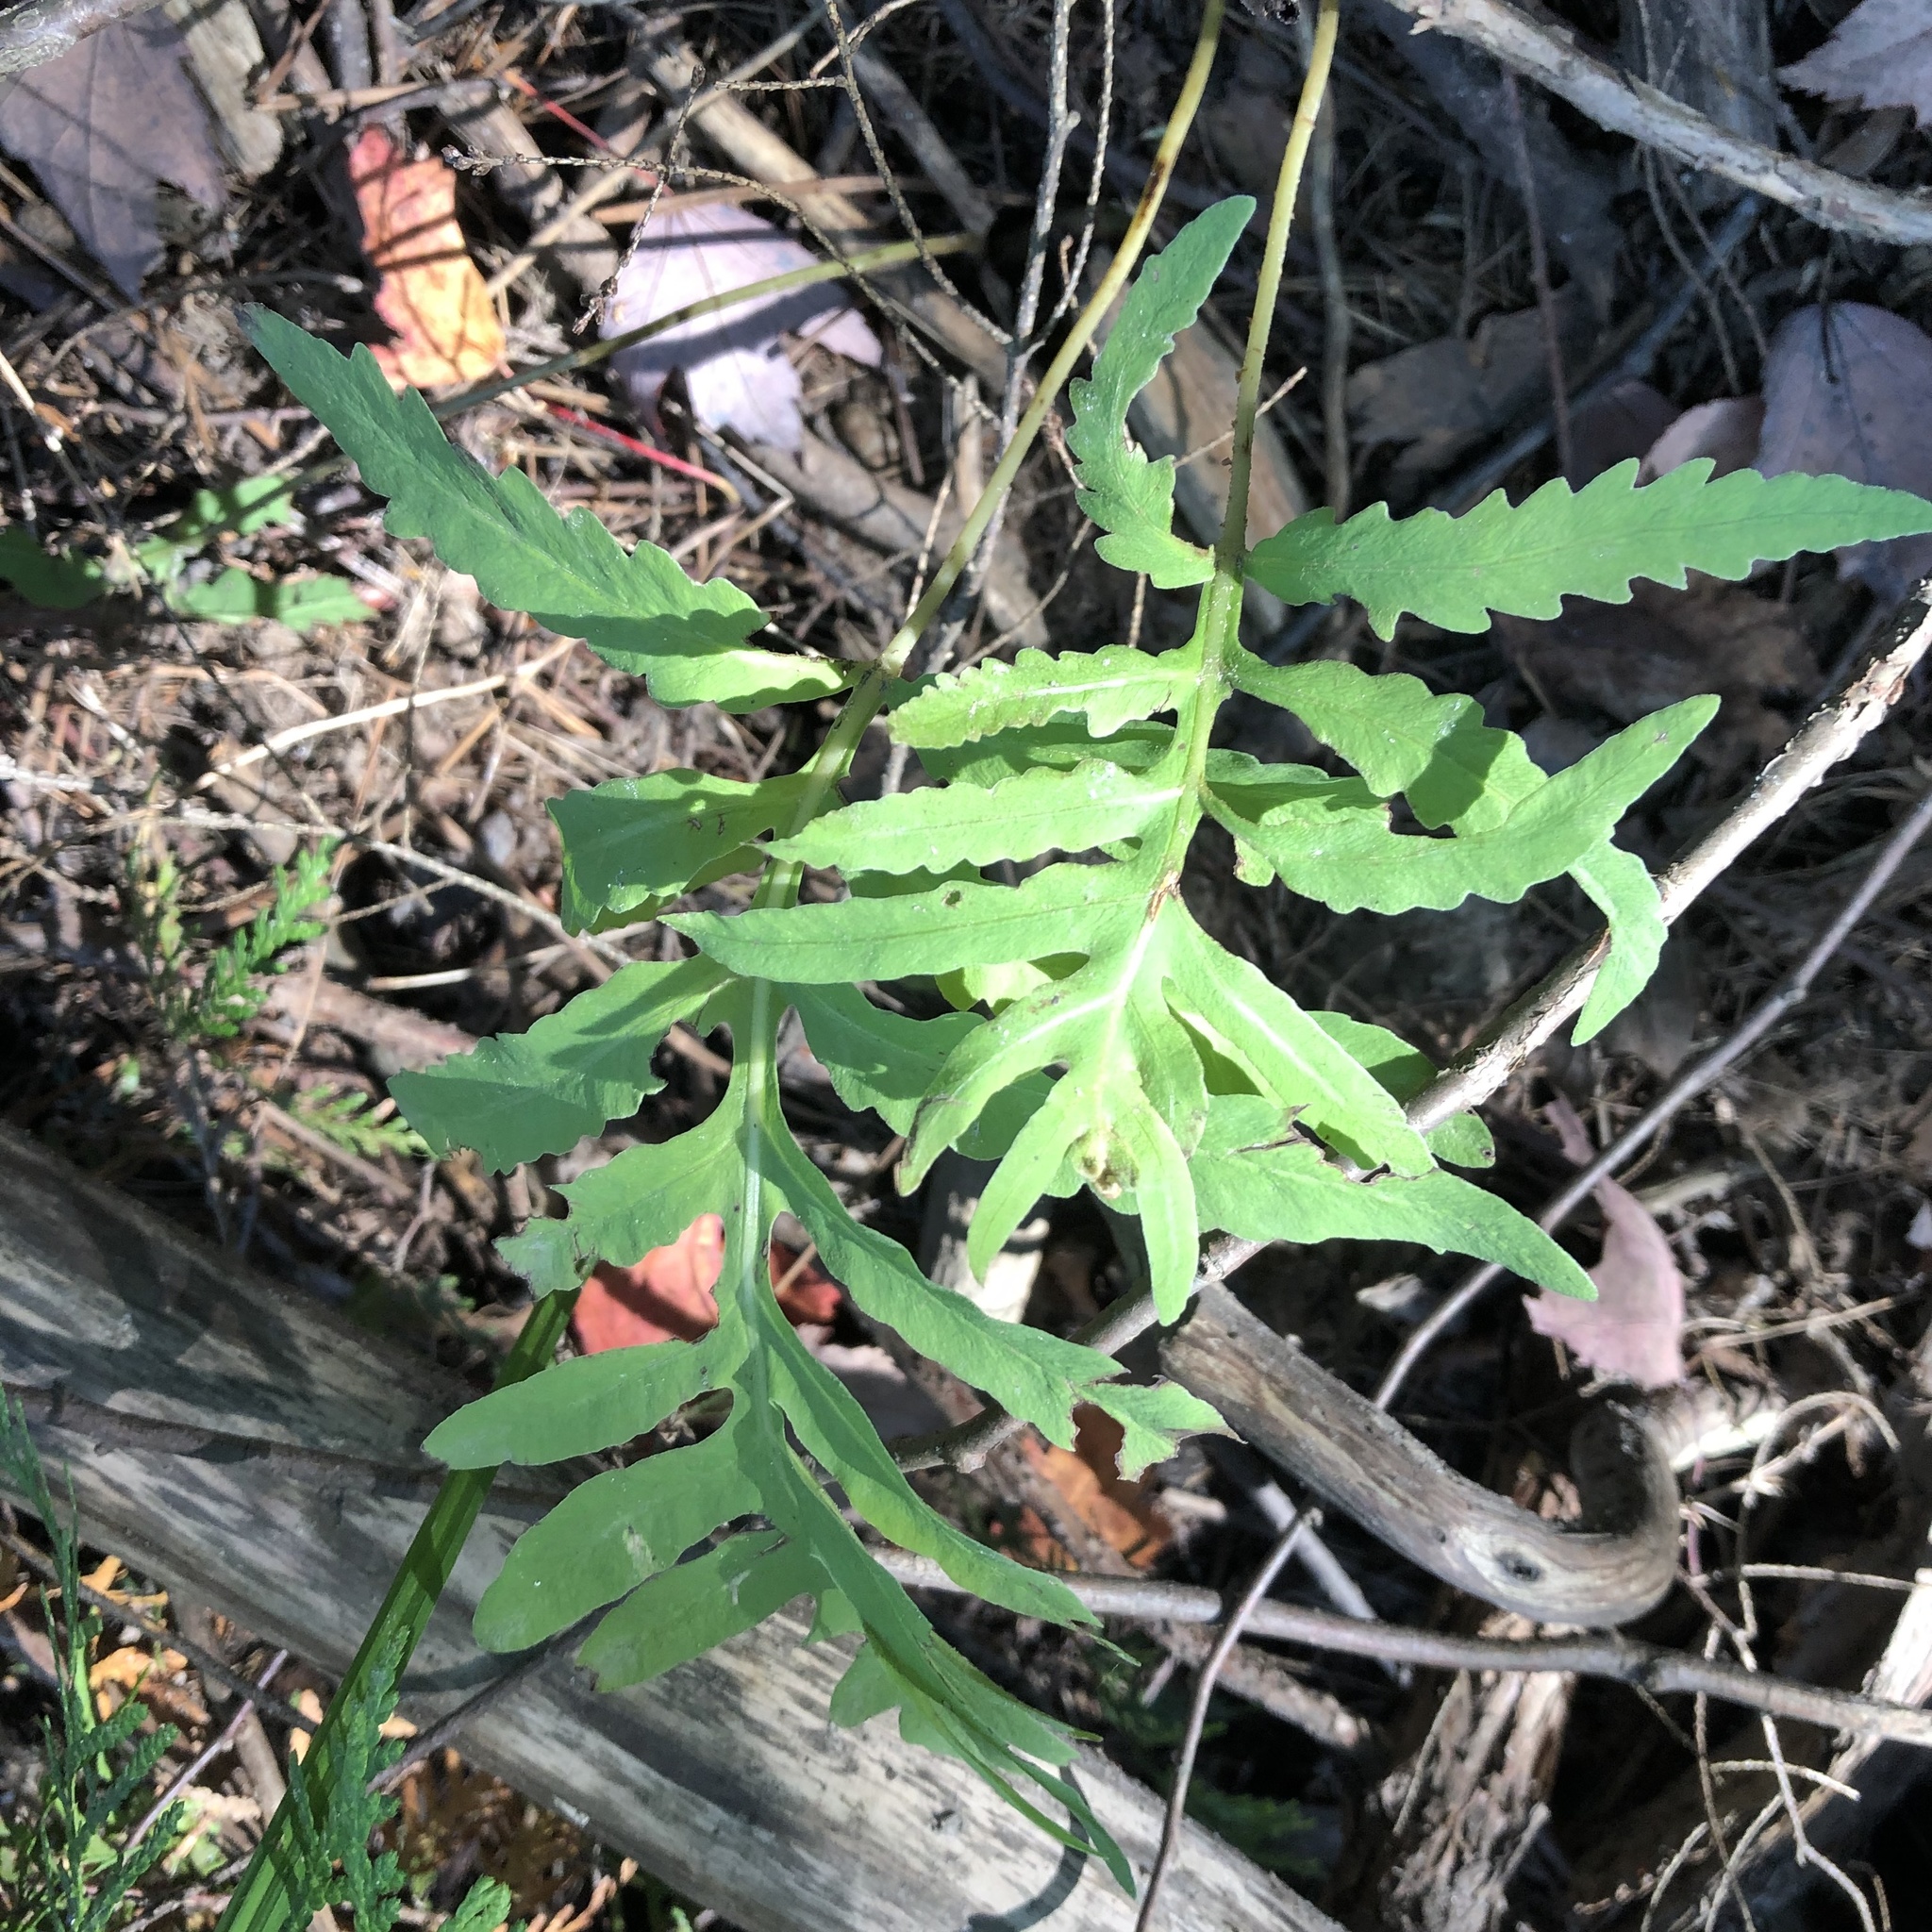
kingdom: Plantae
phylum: Tracheophyta
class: Polypodiopsida
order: Polypodiales
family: Onocleaceae
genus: Onoclea
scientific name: Onoclea sensibilis
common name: Sensitive fern
